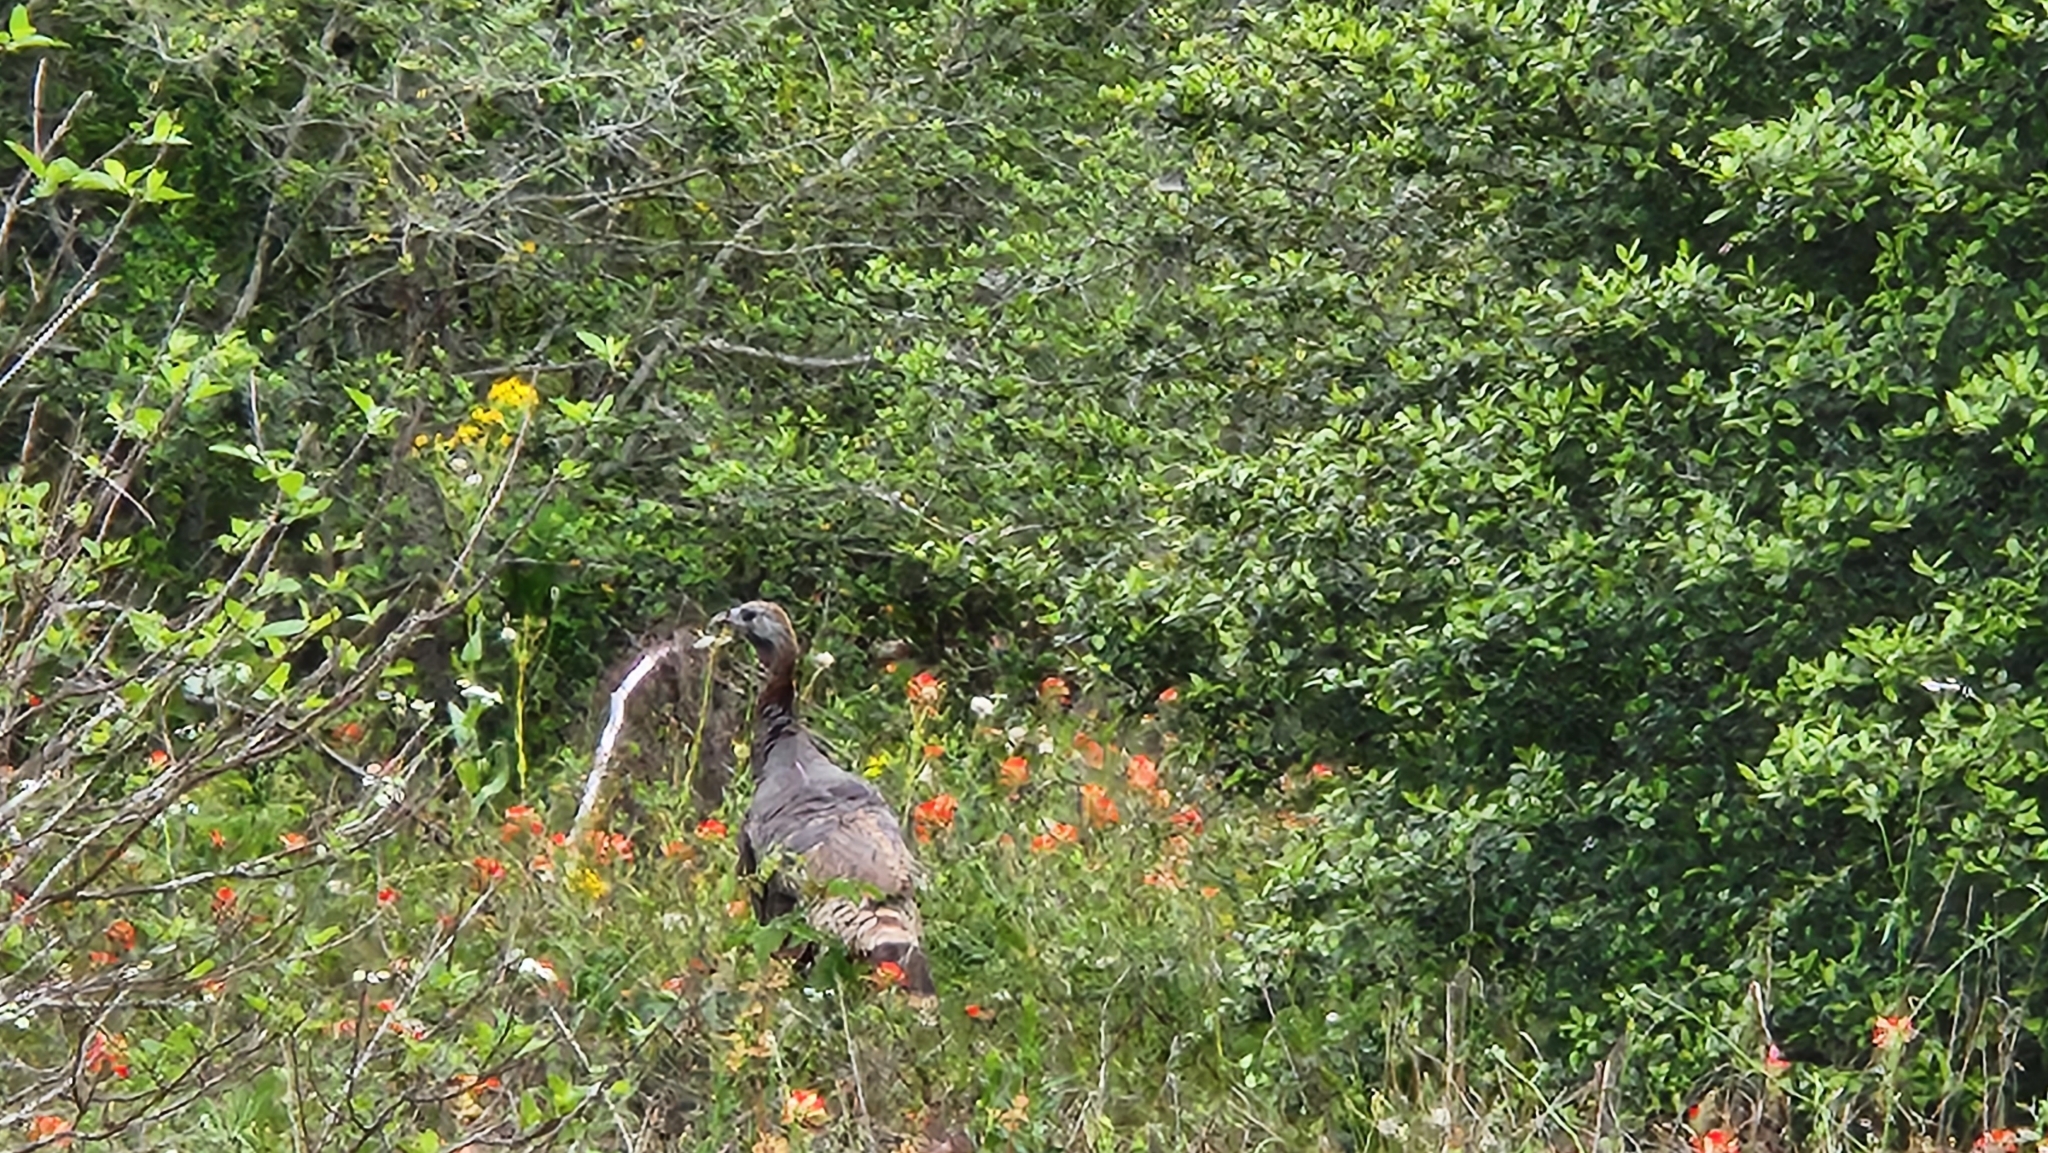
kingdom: Animalia
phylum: Chordata
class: Aves
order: Galliformes
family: Phasianidae
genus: Meleagris
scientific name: Meleagris gallopavo
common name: Wild turkey
